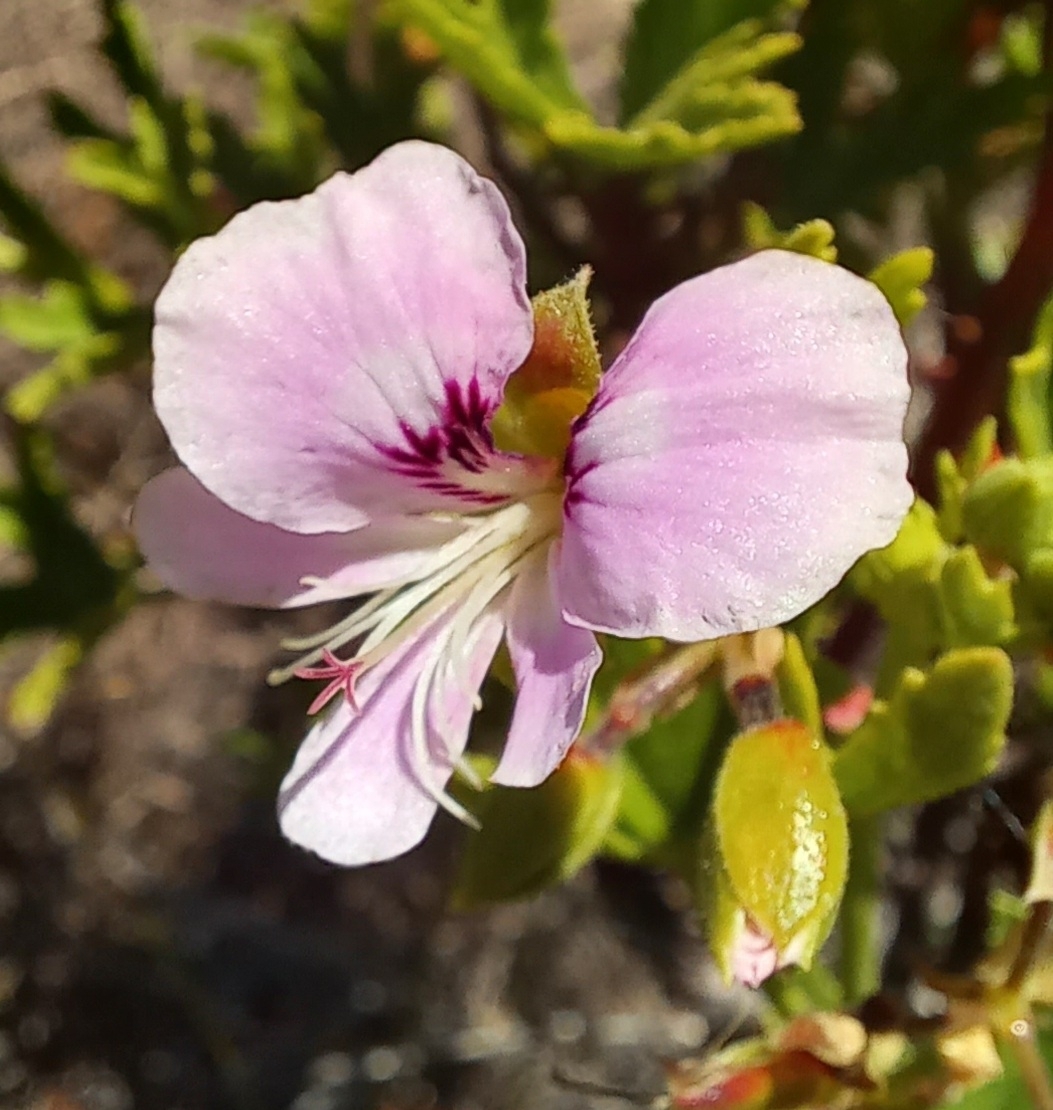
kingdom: Plantae
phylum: Tracheophyta
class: Magnoliopsida
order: Geraniales
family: Geraniaceae
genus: Pelargonium
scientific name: Pelargonium scabrum
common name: Apricot geranium
